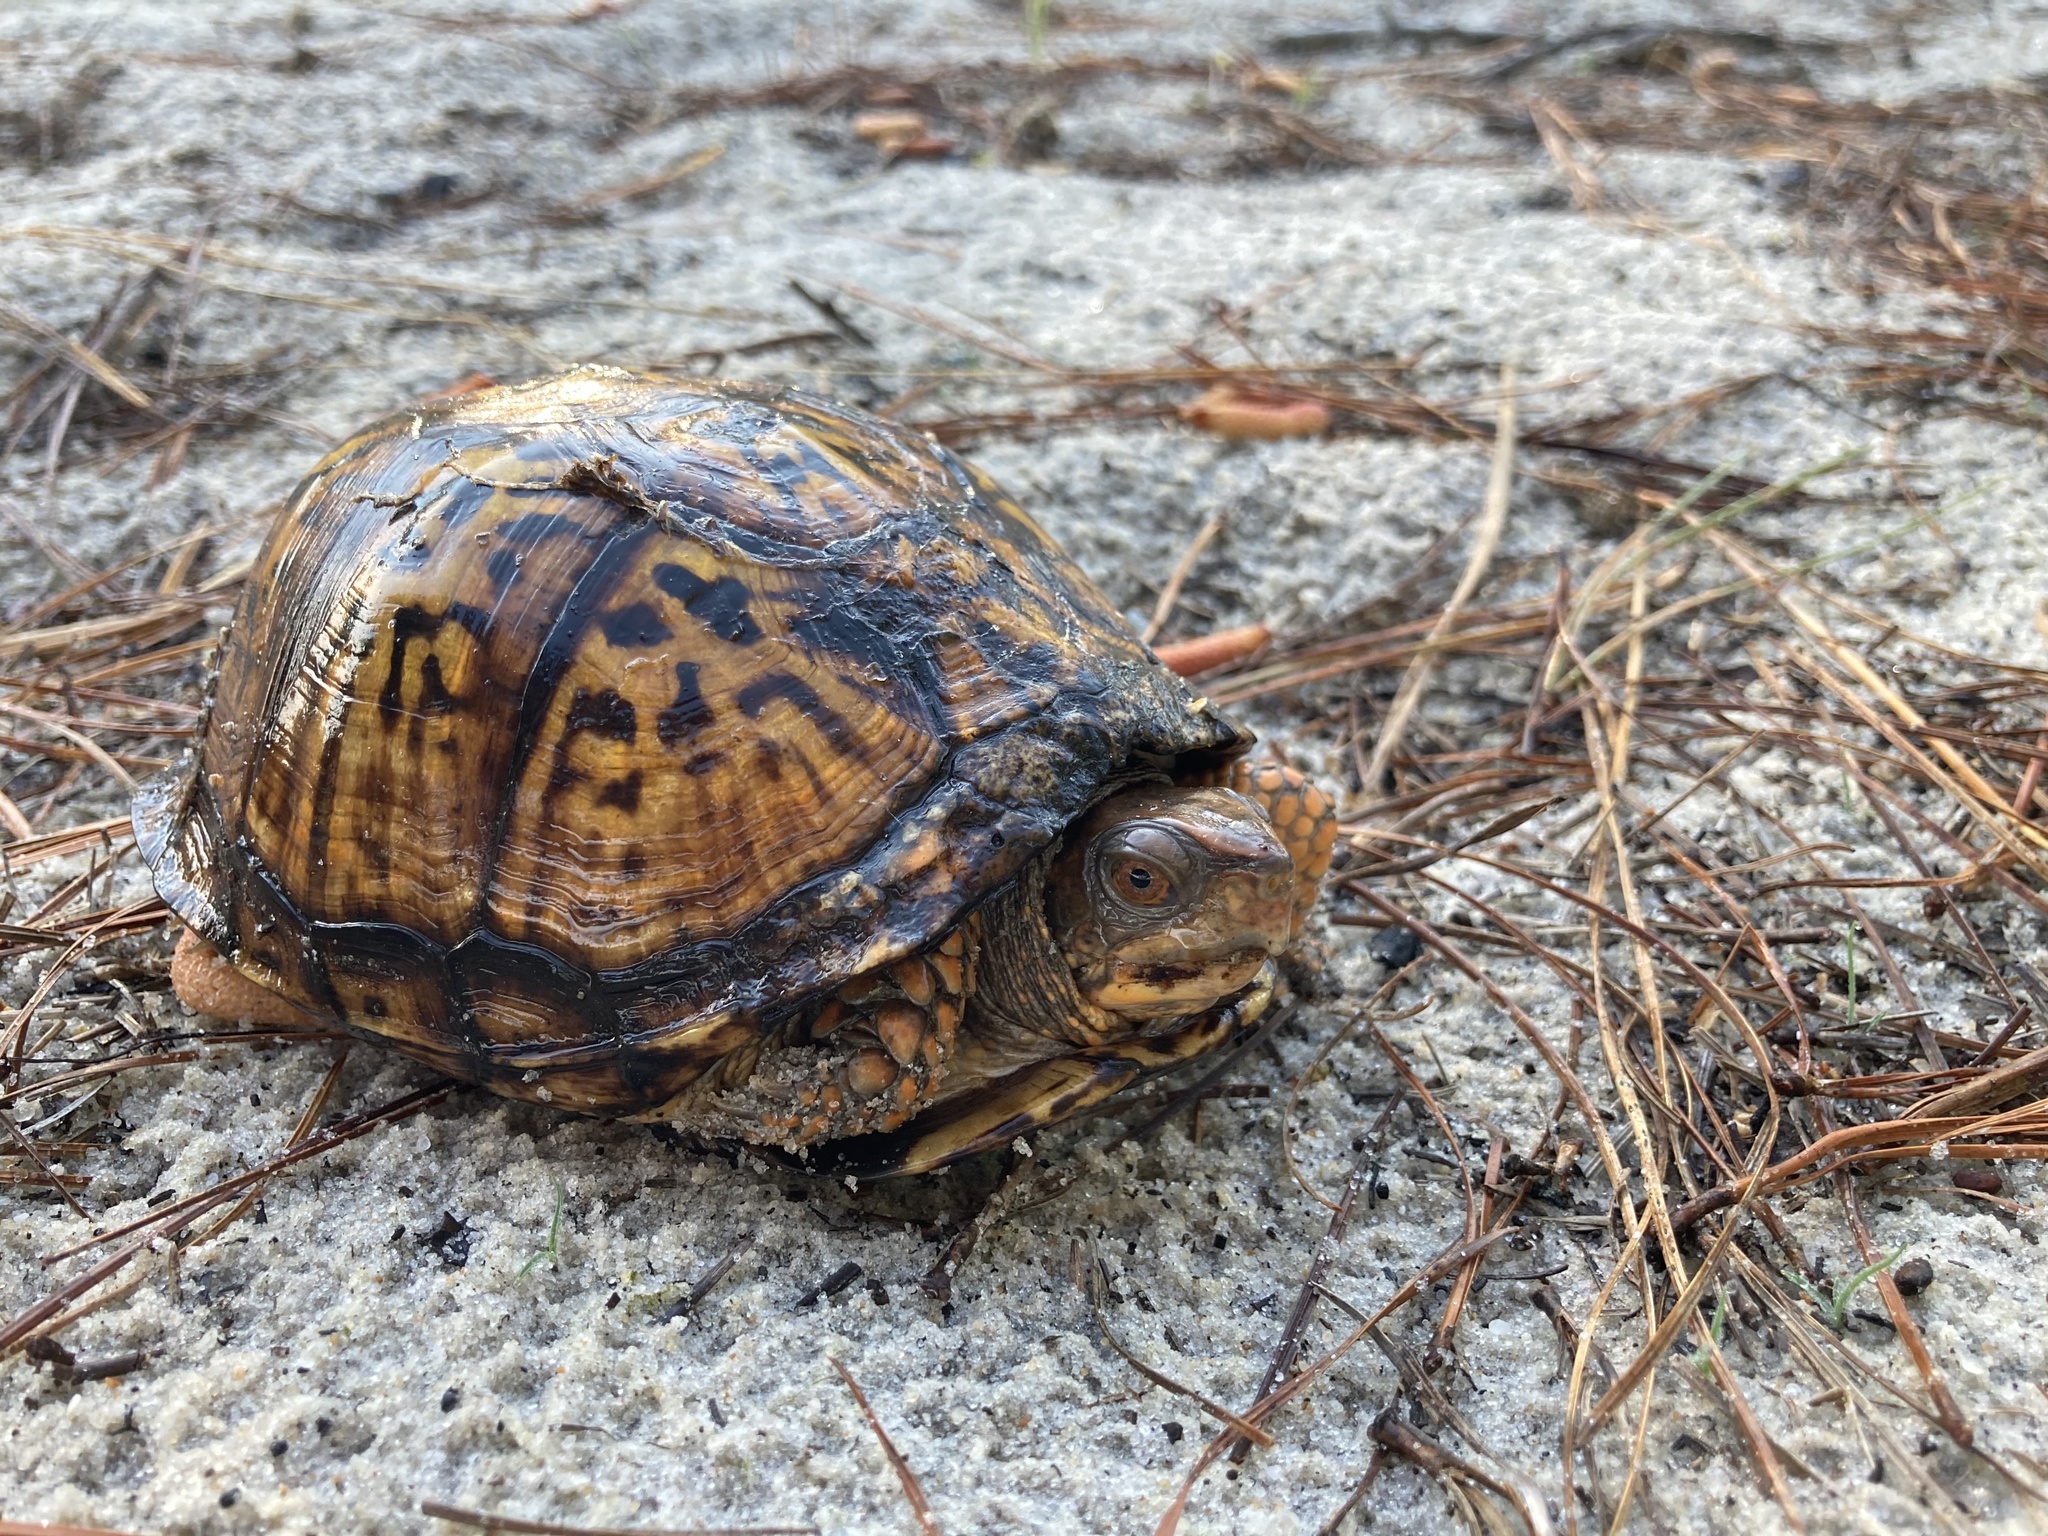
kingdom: Animalia
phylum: Chordata
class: Testudines
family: Emydidae
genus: Terrapene
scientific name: Terrapene carolina
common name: Common box turtle
